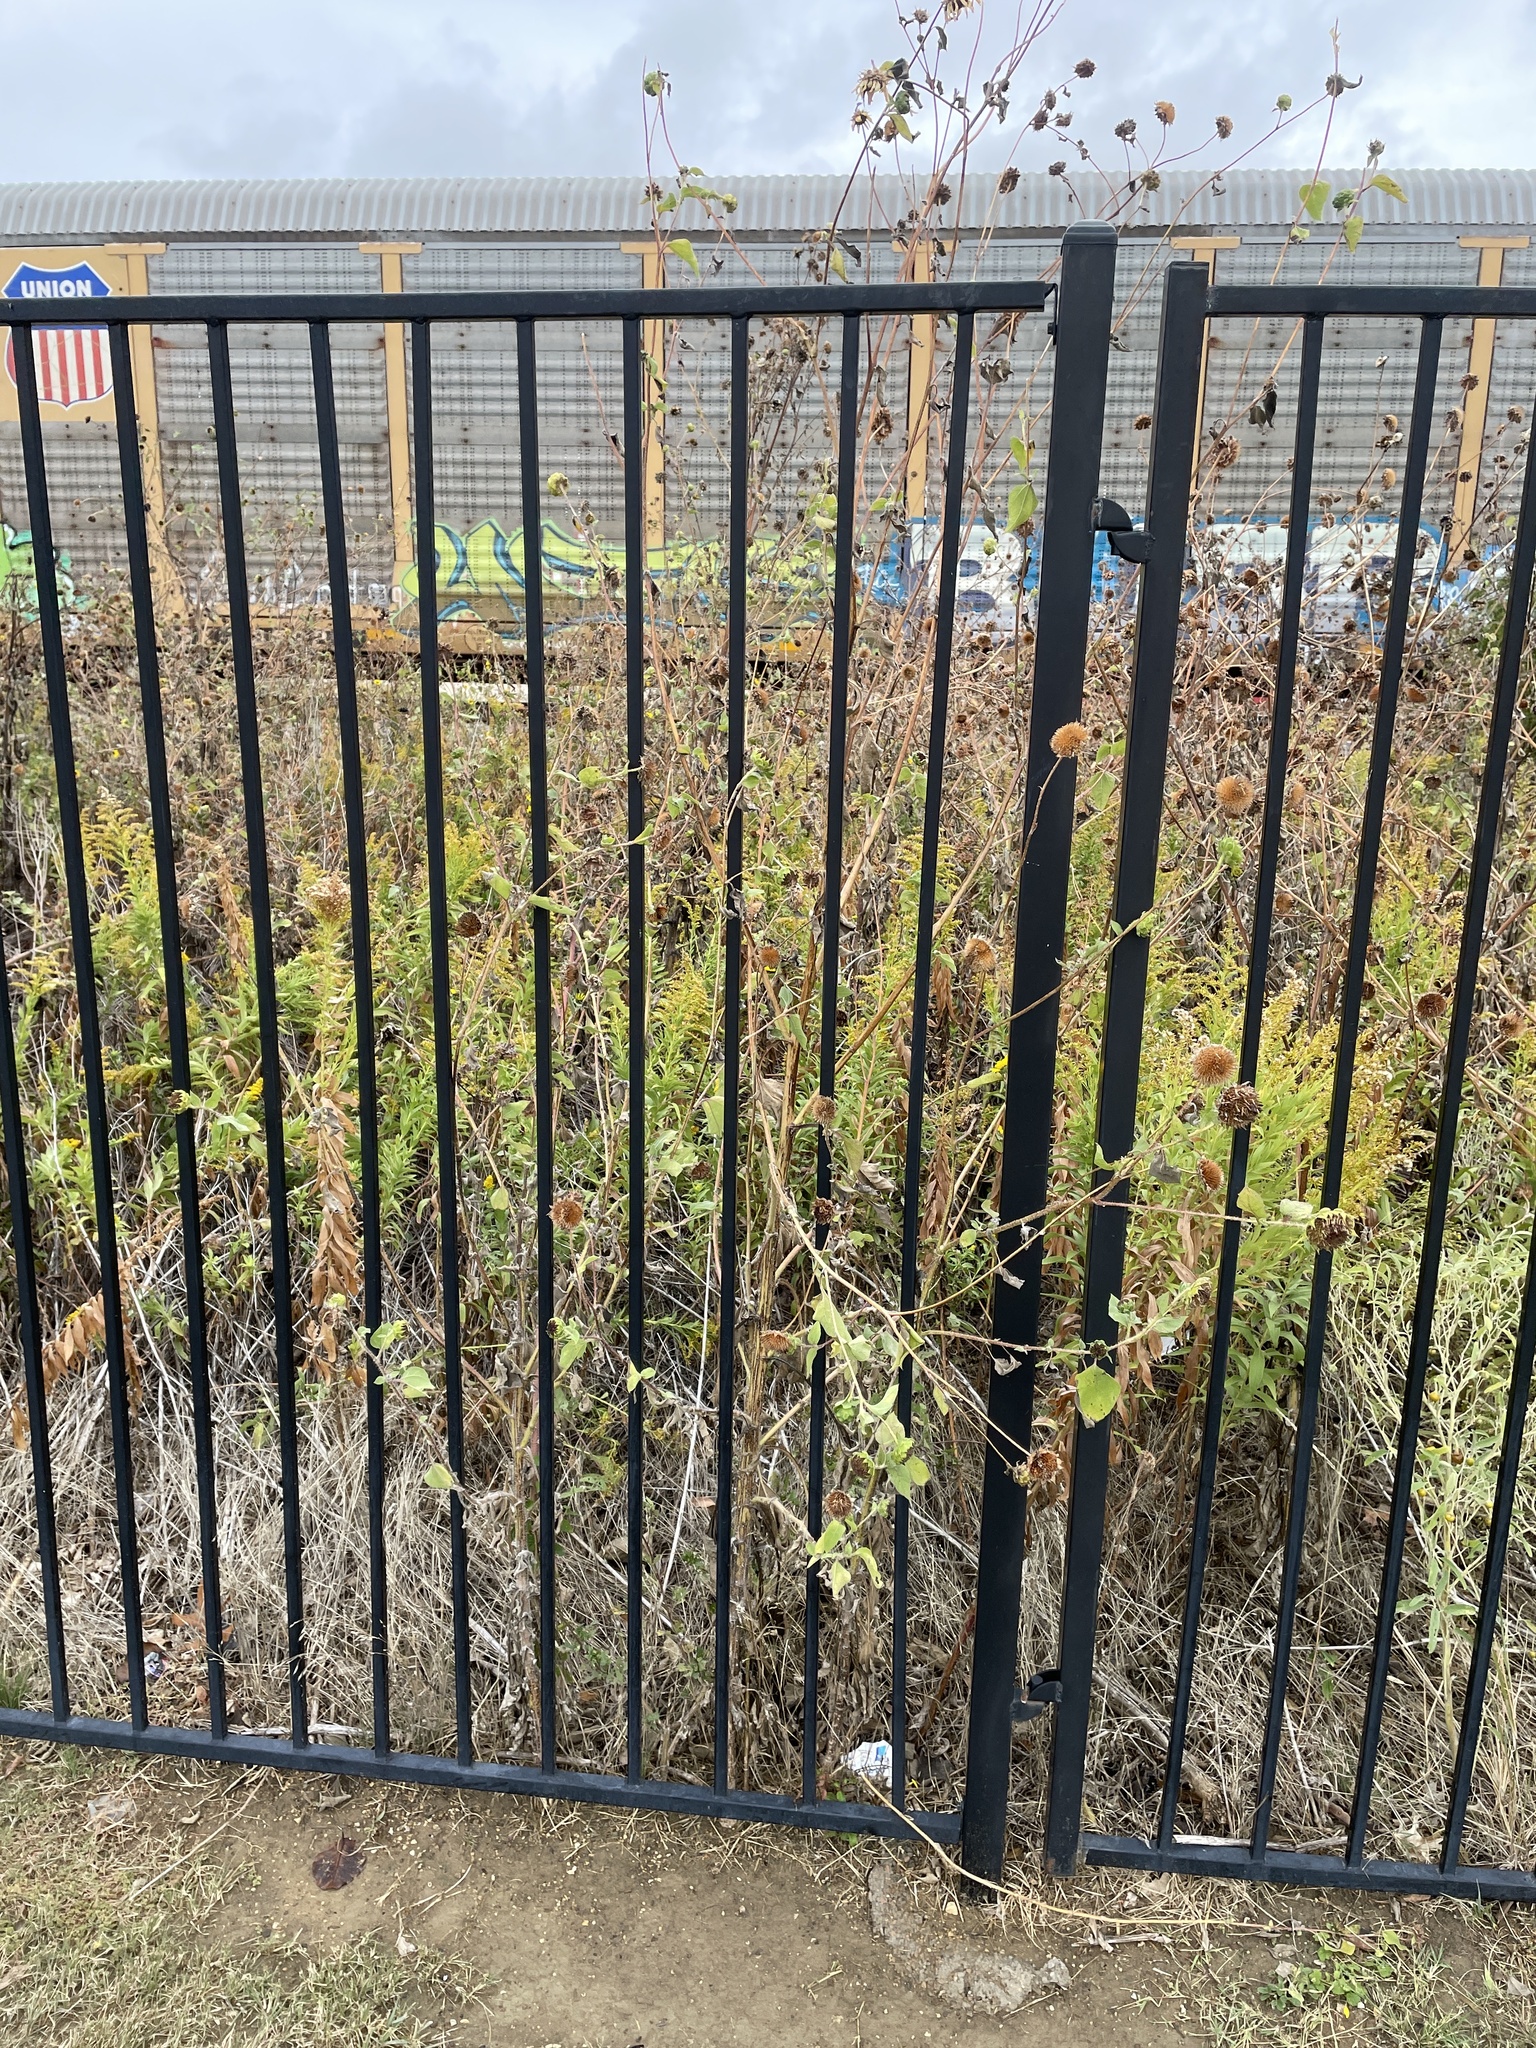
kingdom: Plantae
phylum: Tracheophyta
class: Magnoliopsida
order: Asterales
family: Asteraceae
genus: Helianthus
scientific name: Helianthus annuus
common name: Sunflower
